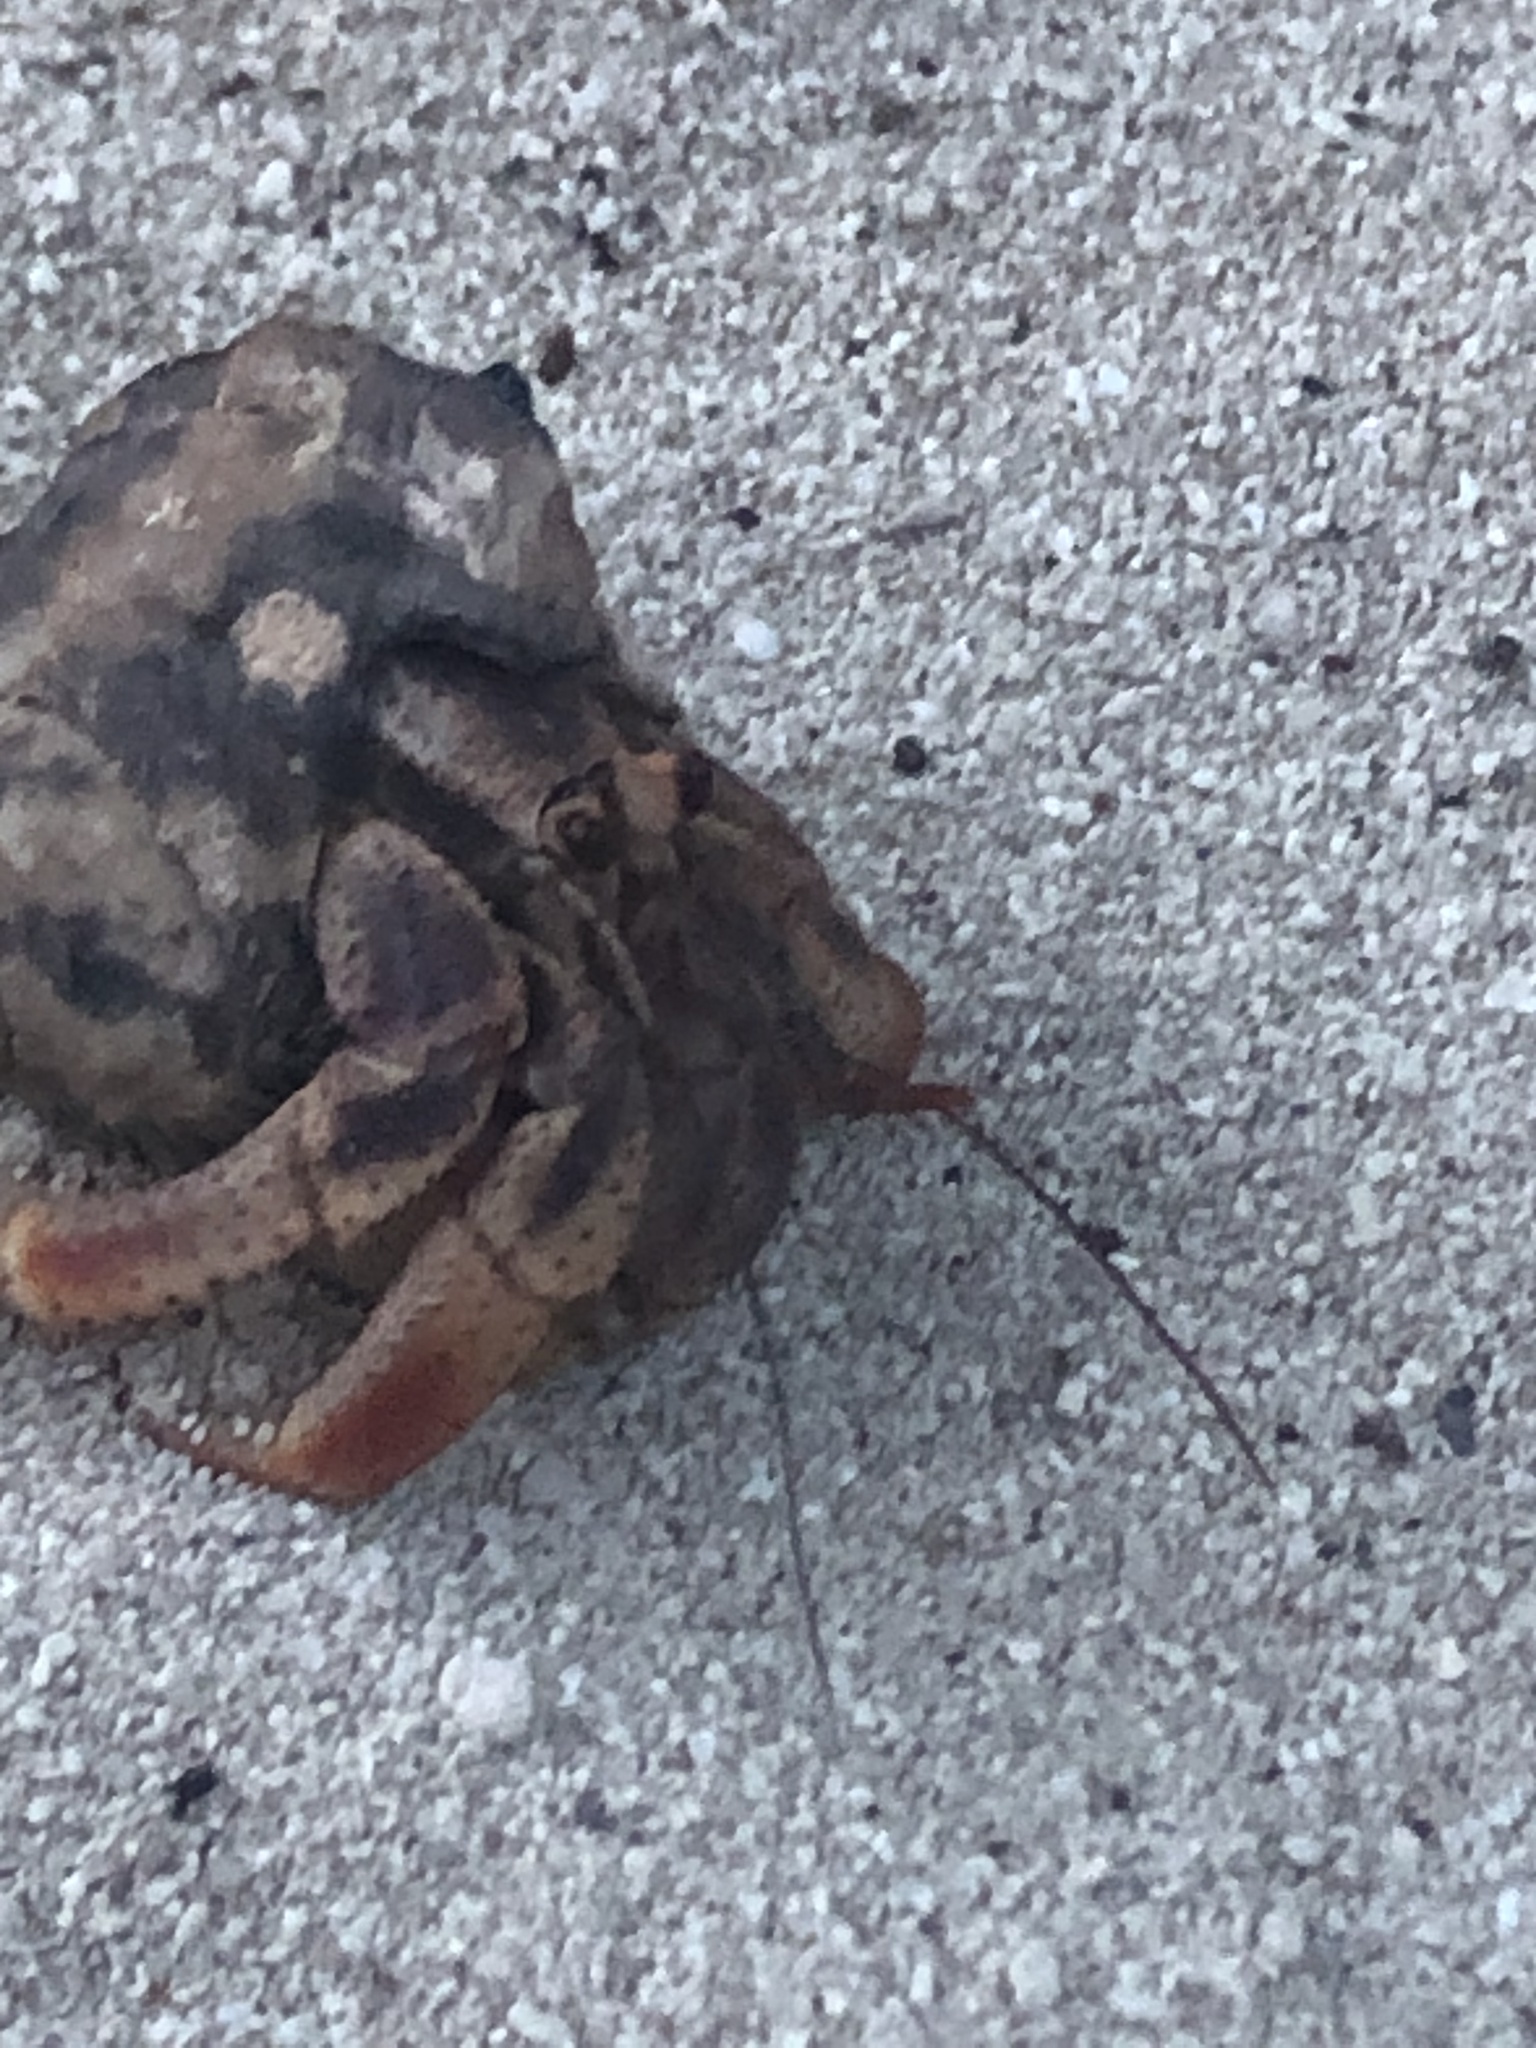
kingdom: Animalia
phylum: Arthropoda
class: Malacostraca
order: Decapoda
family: Coenobitidae
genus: Coenobita
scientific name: Coenobita clypeatus
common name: Caribbean hermit crab
